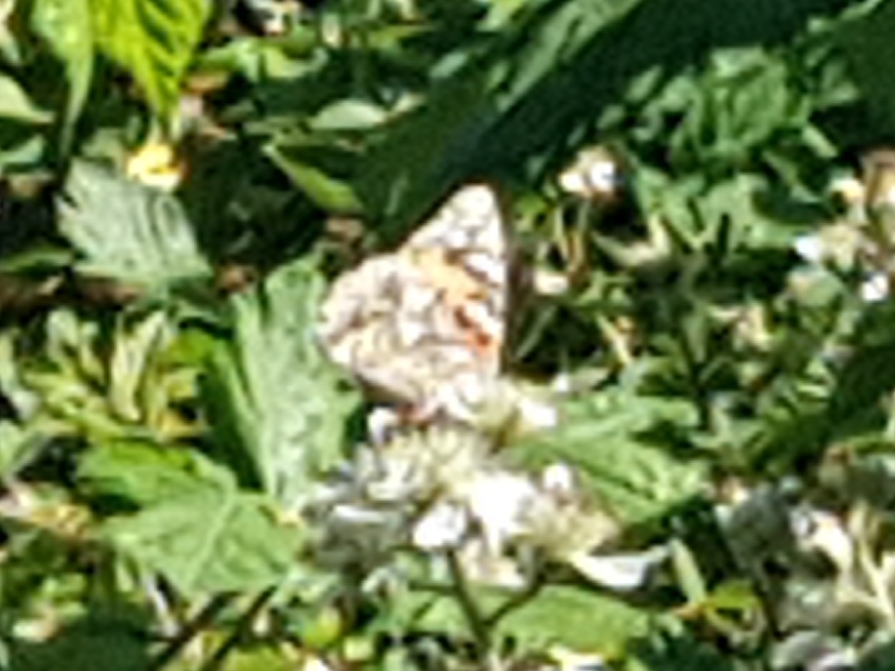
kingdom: Animalia
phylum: Arthropoda
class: Insecta
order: Lepidoptera
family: Nymphalidae
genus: Vanessa
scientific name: Vanessa cardui
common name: Painted lady
